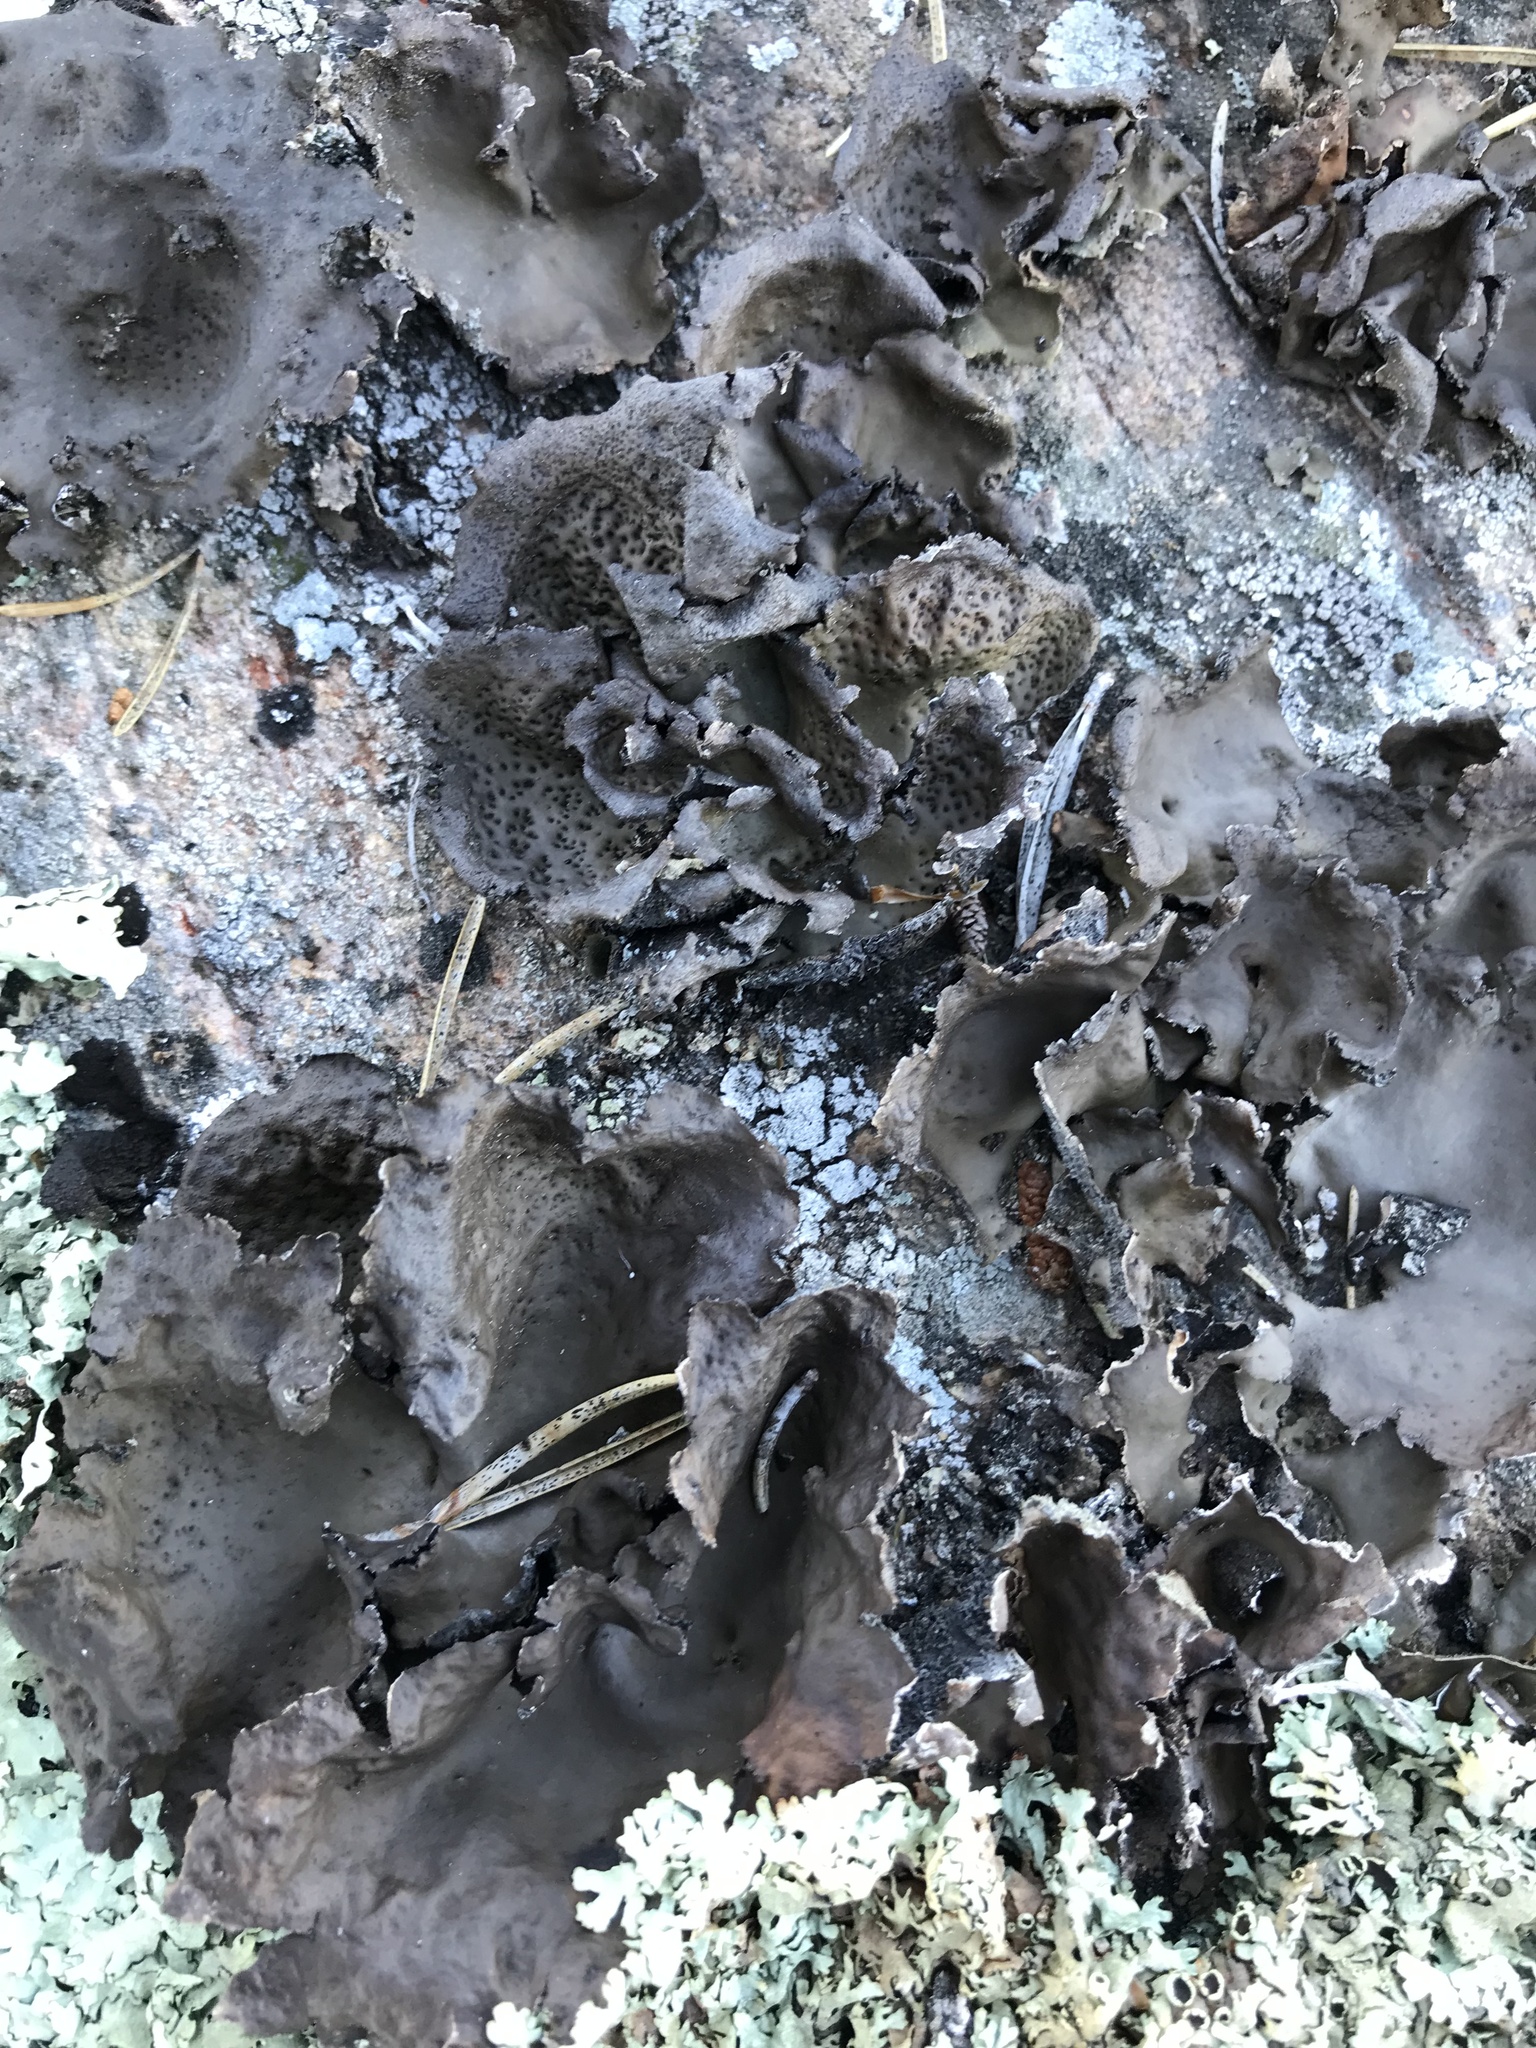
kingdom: Fungi
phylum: Ascomycota
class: Lecanoromycetes
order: Umbilicariales
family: Umbilicariaceae
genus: Umbilicaria
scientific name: Umbilicaria muhlenbergii
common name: Lesser rocktripe
